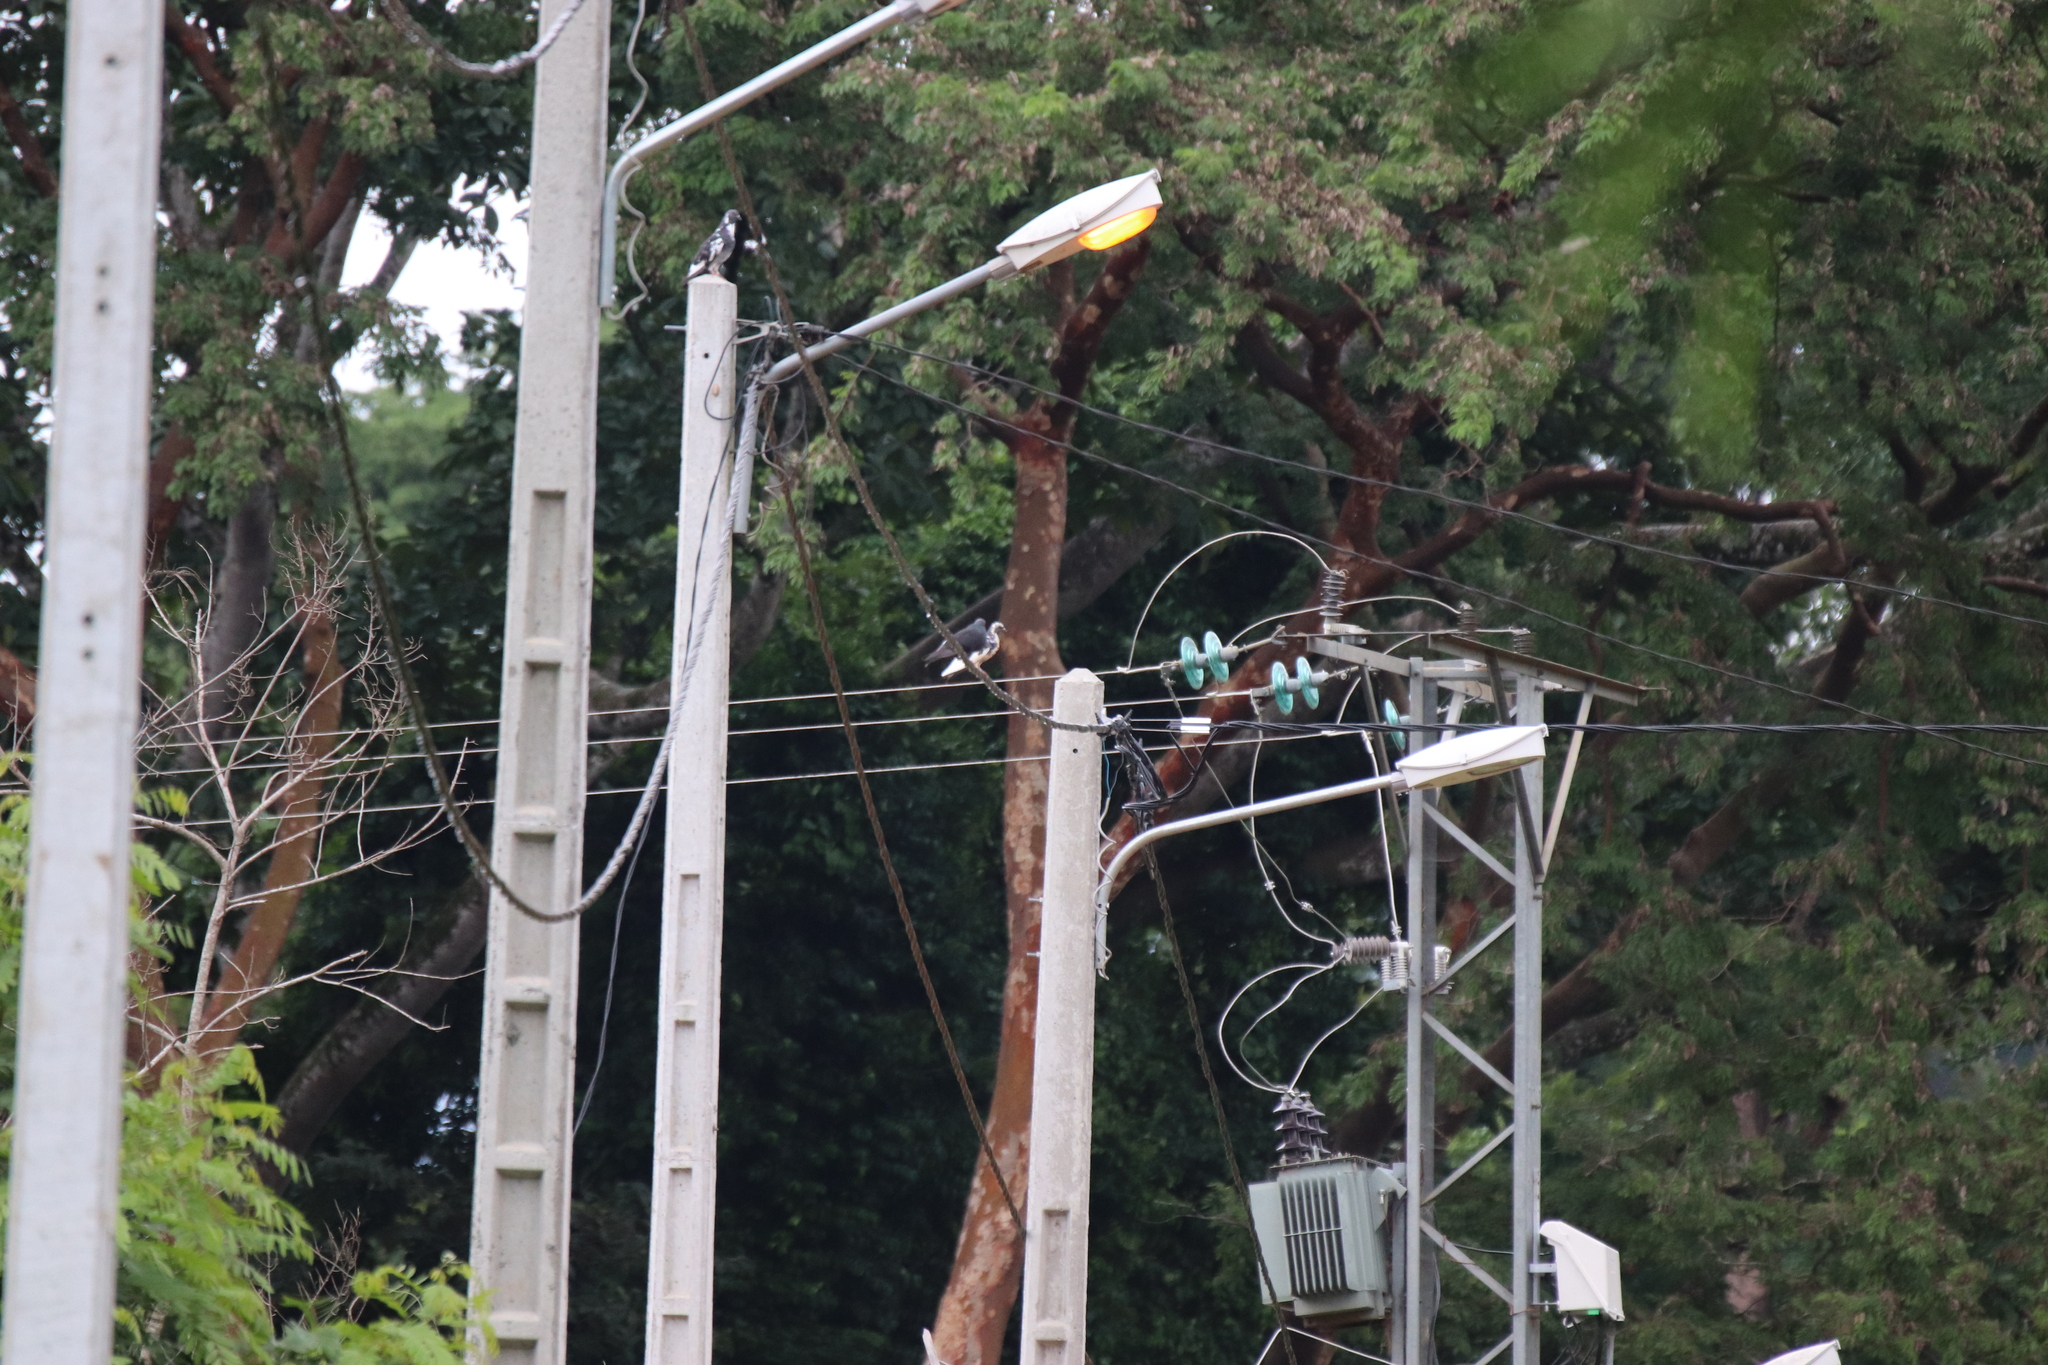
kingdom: Animalia
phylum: Chordata
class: Aves
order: Columbiformes
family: Columbidae
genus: Columba
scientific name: Columba livia
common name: Rock pigeon
